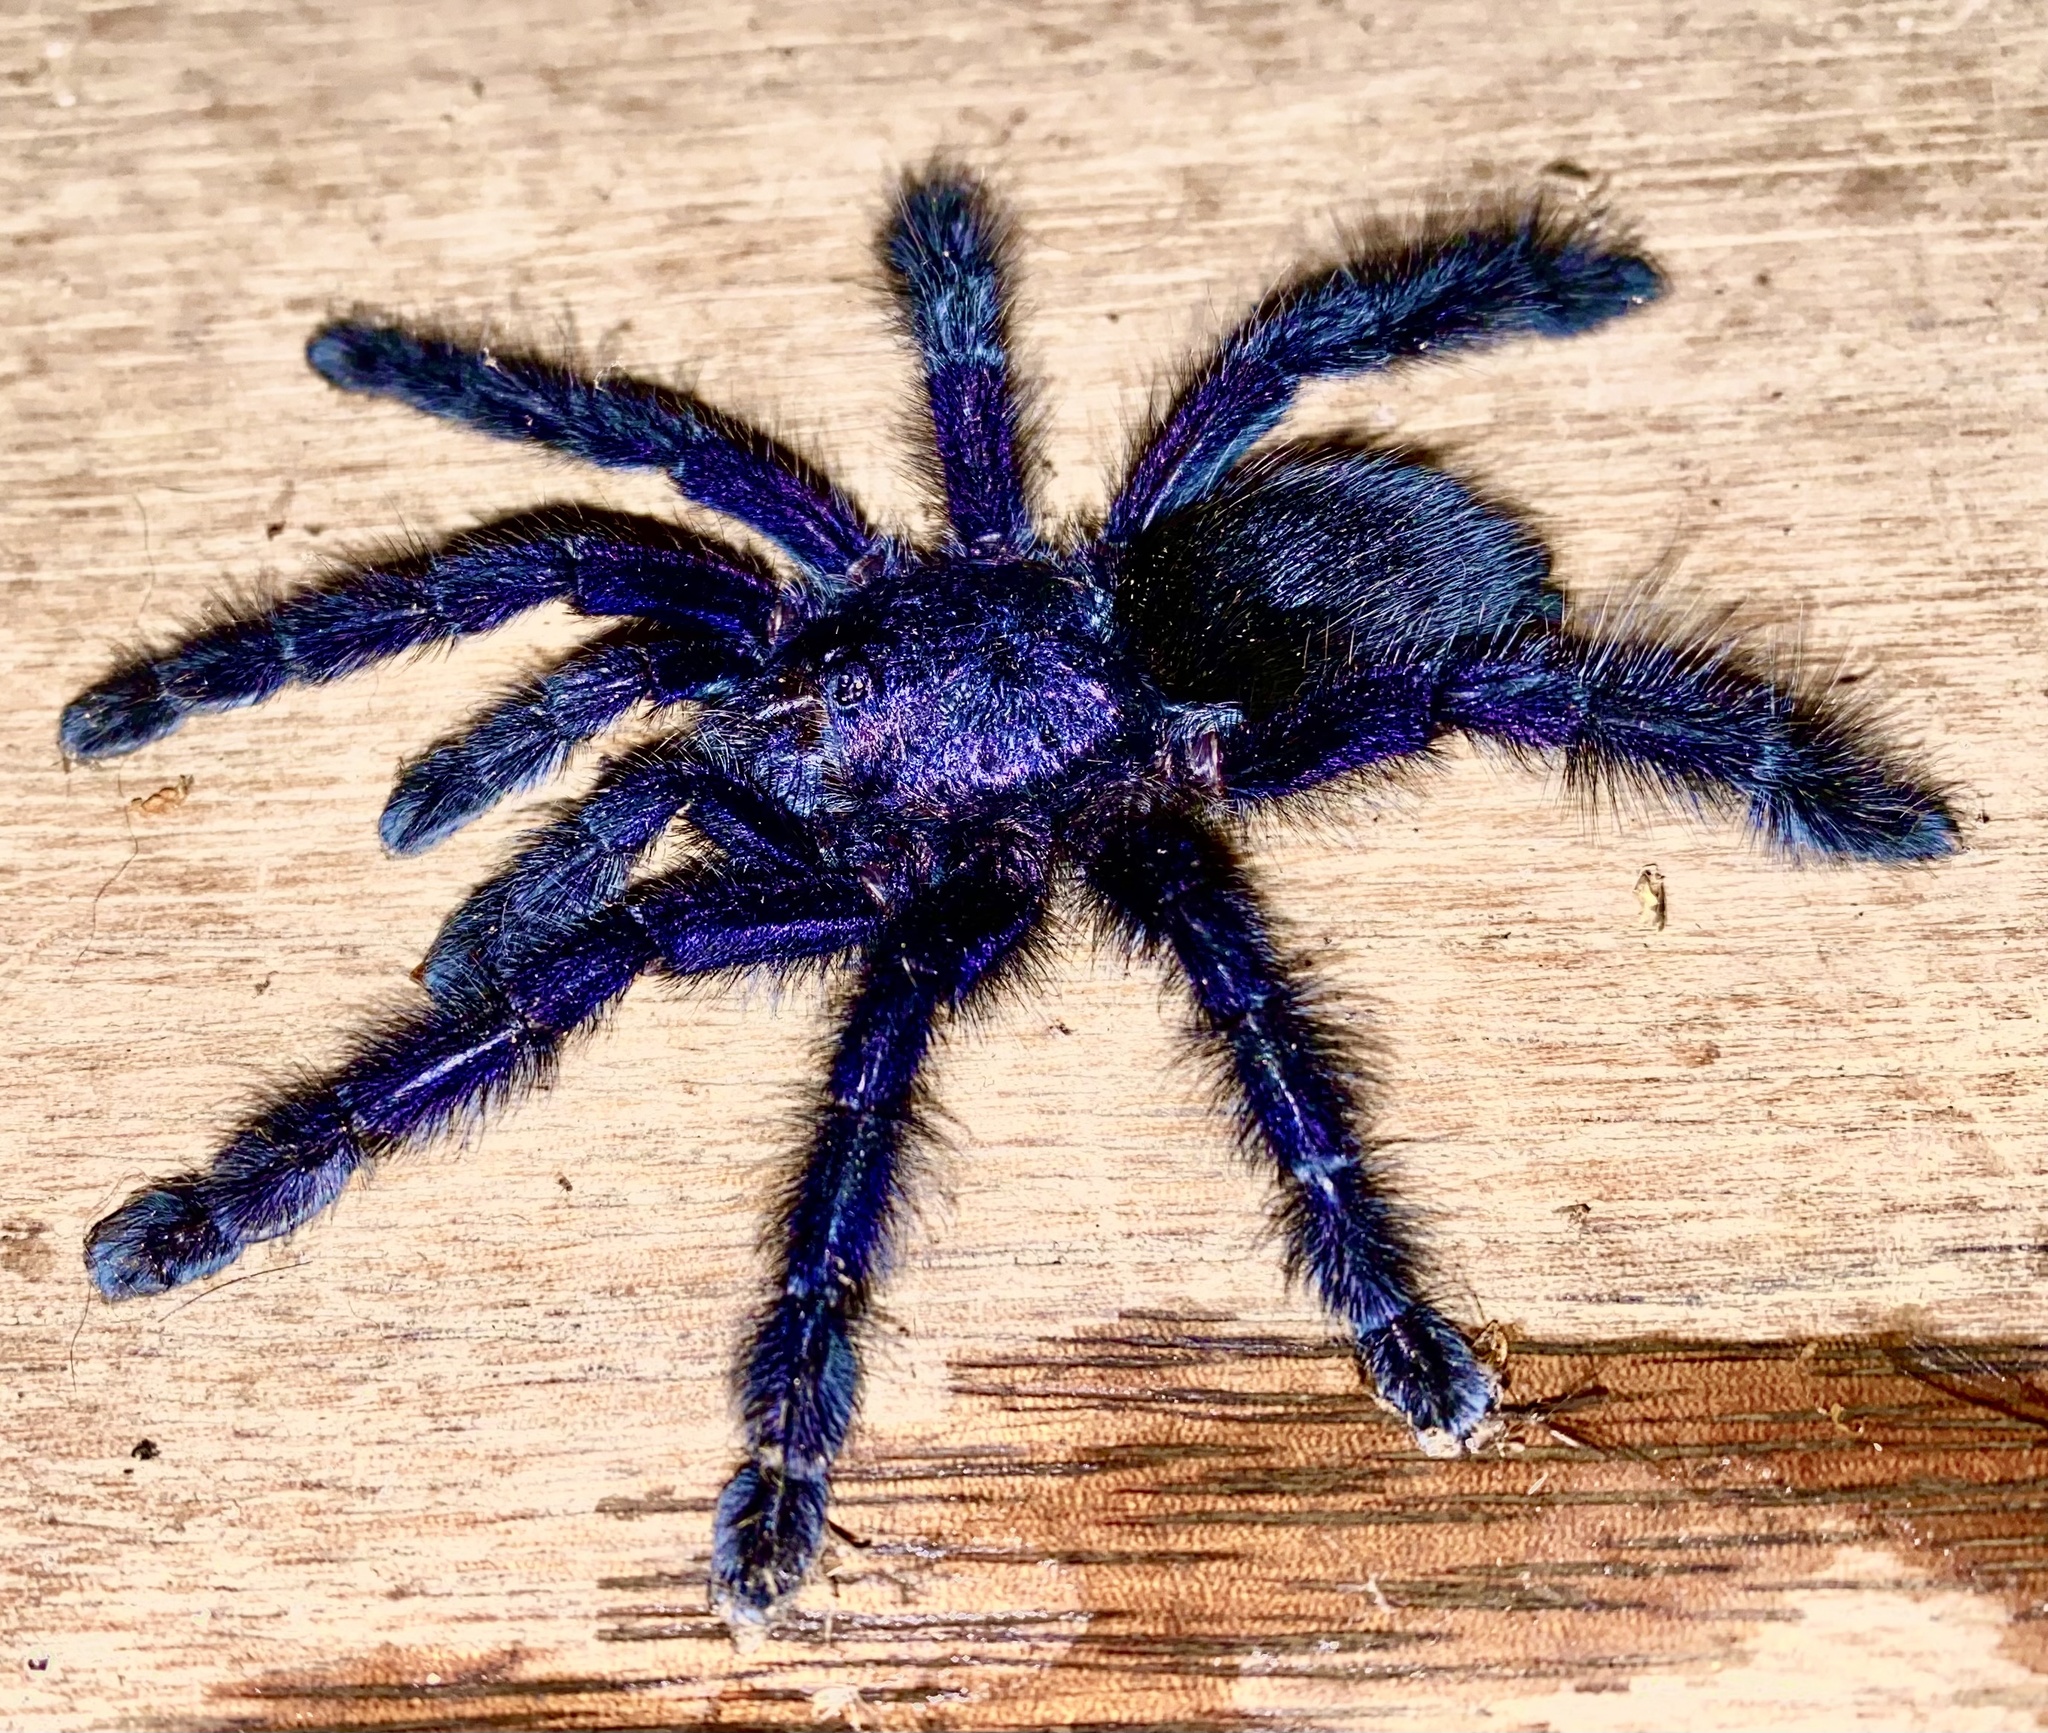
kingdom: Animalia
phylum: Arthropoda
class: Arachnida
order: Araneae
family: Theraphosidae
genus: Avicularia
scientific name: Avicularia purpurea
